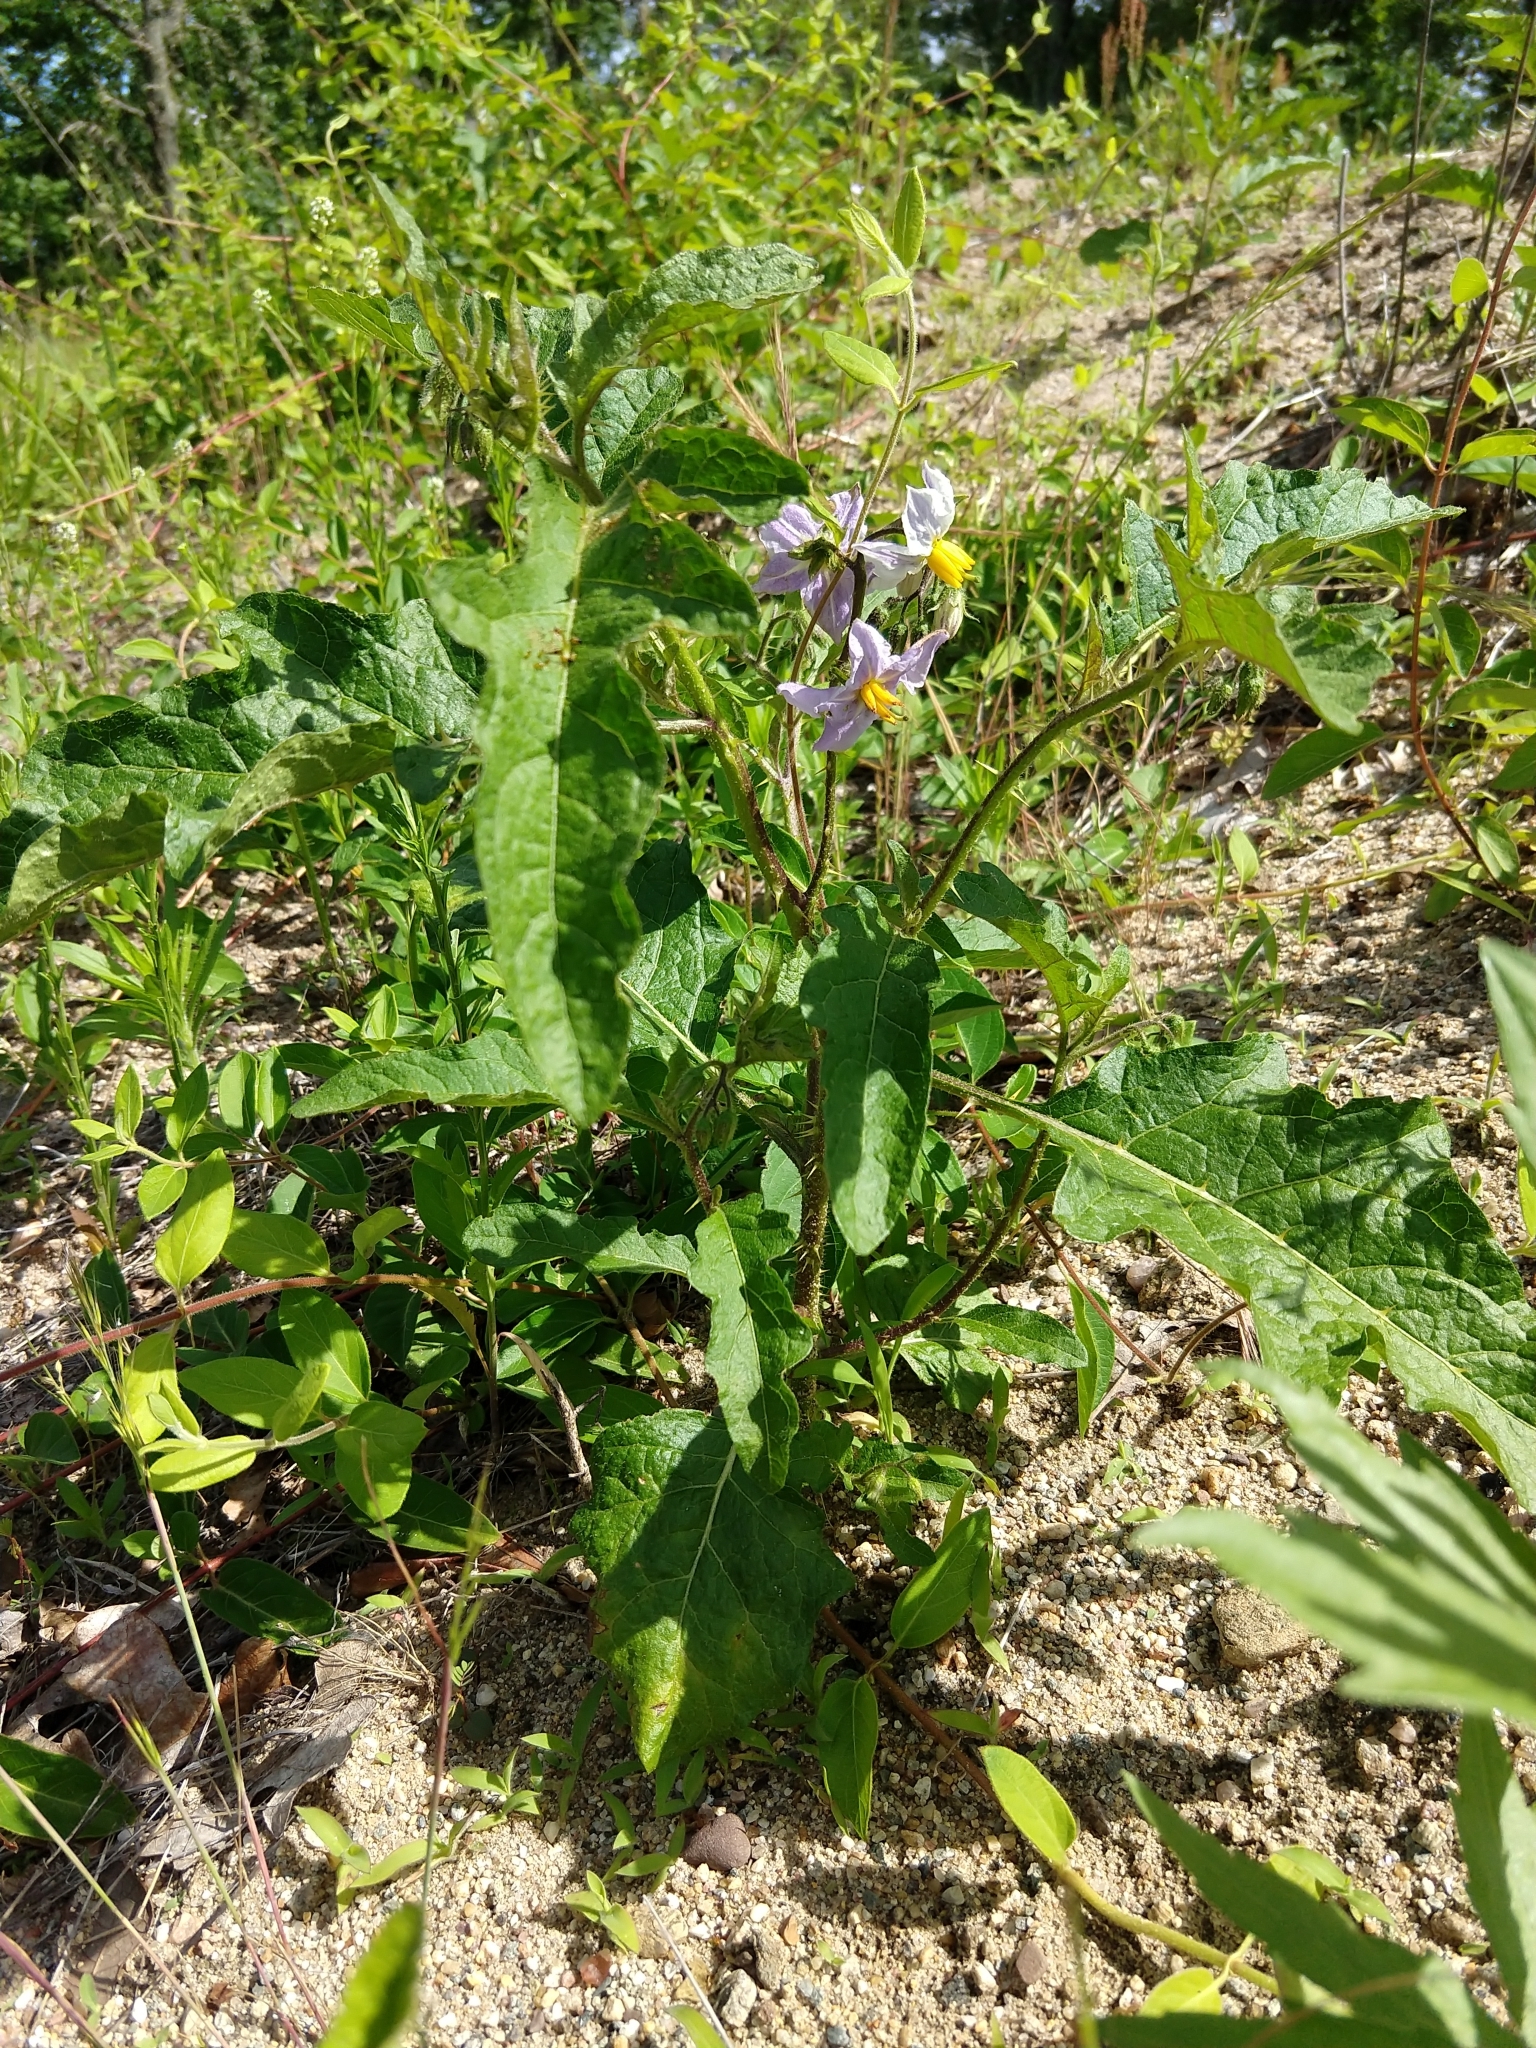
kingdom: Plantae
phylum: Tracheophyta
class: Magnoliopsida
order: Solanales
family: Solanaceae
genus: Solanum
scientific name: Solanum carolinense
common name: Horse-nettle
